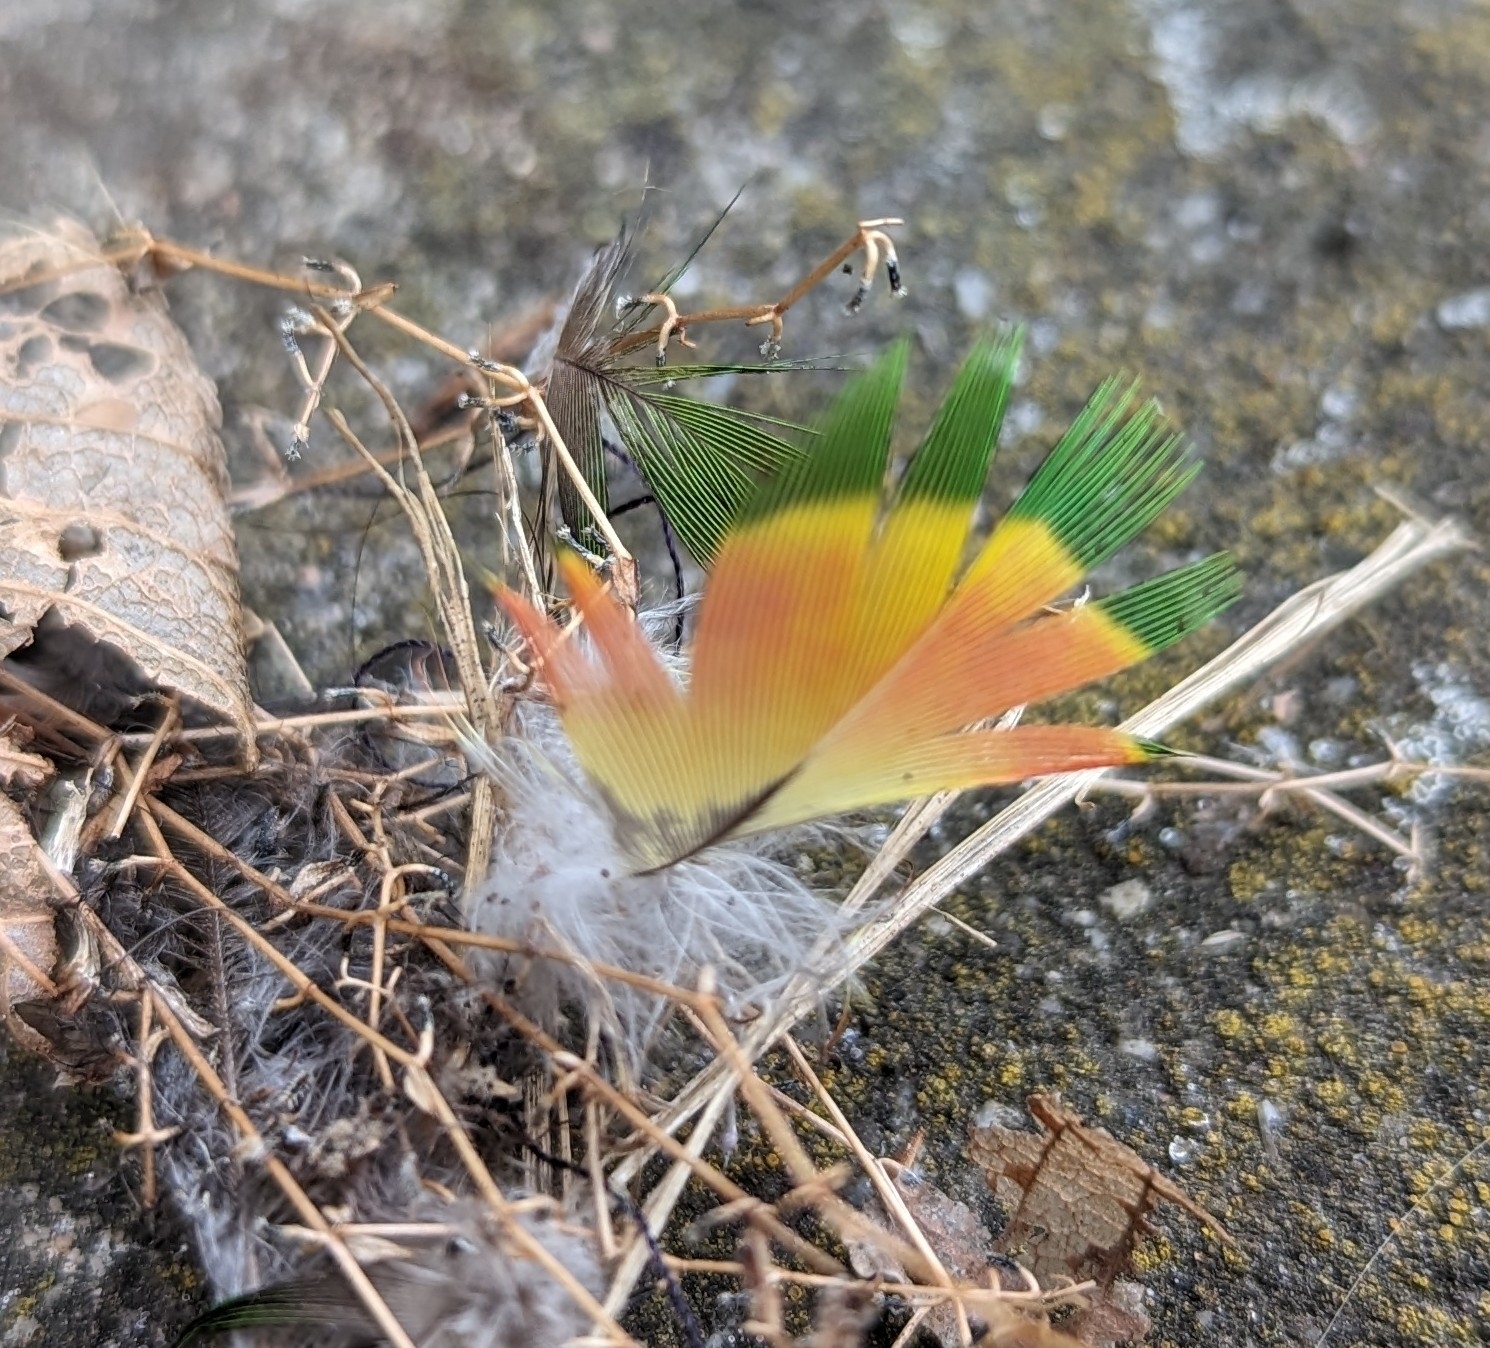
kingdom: Animalia
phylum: Chordata
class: Aves
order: Psittaciformes
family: Psittacidae
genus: Trichoglossus
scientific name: Trichoglossus haematodus
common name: Coconut lorikeet
